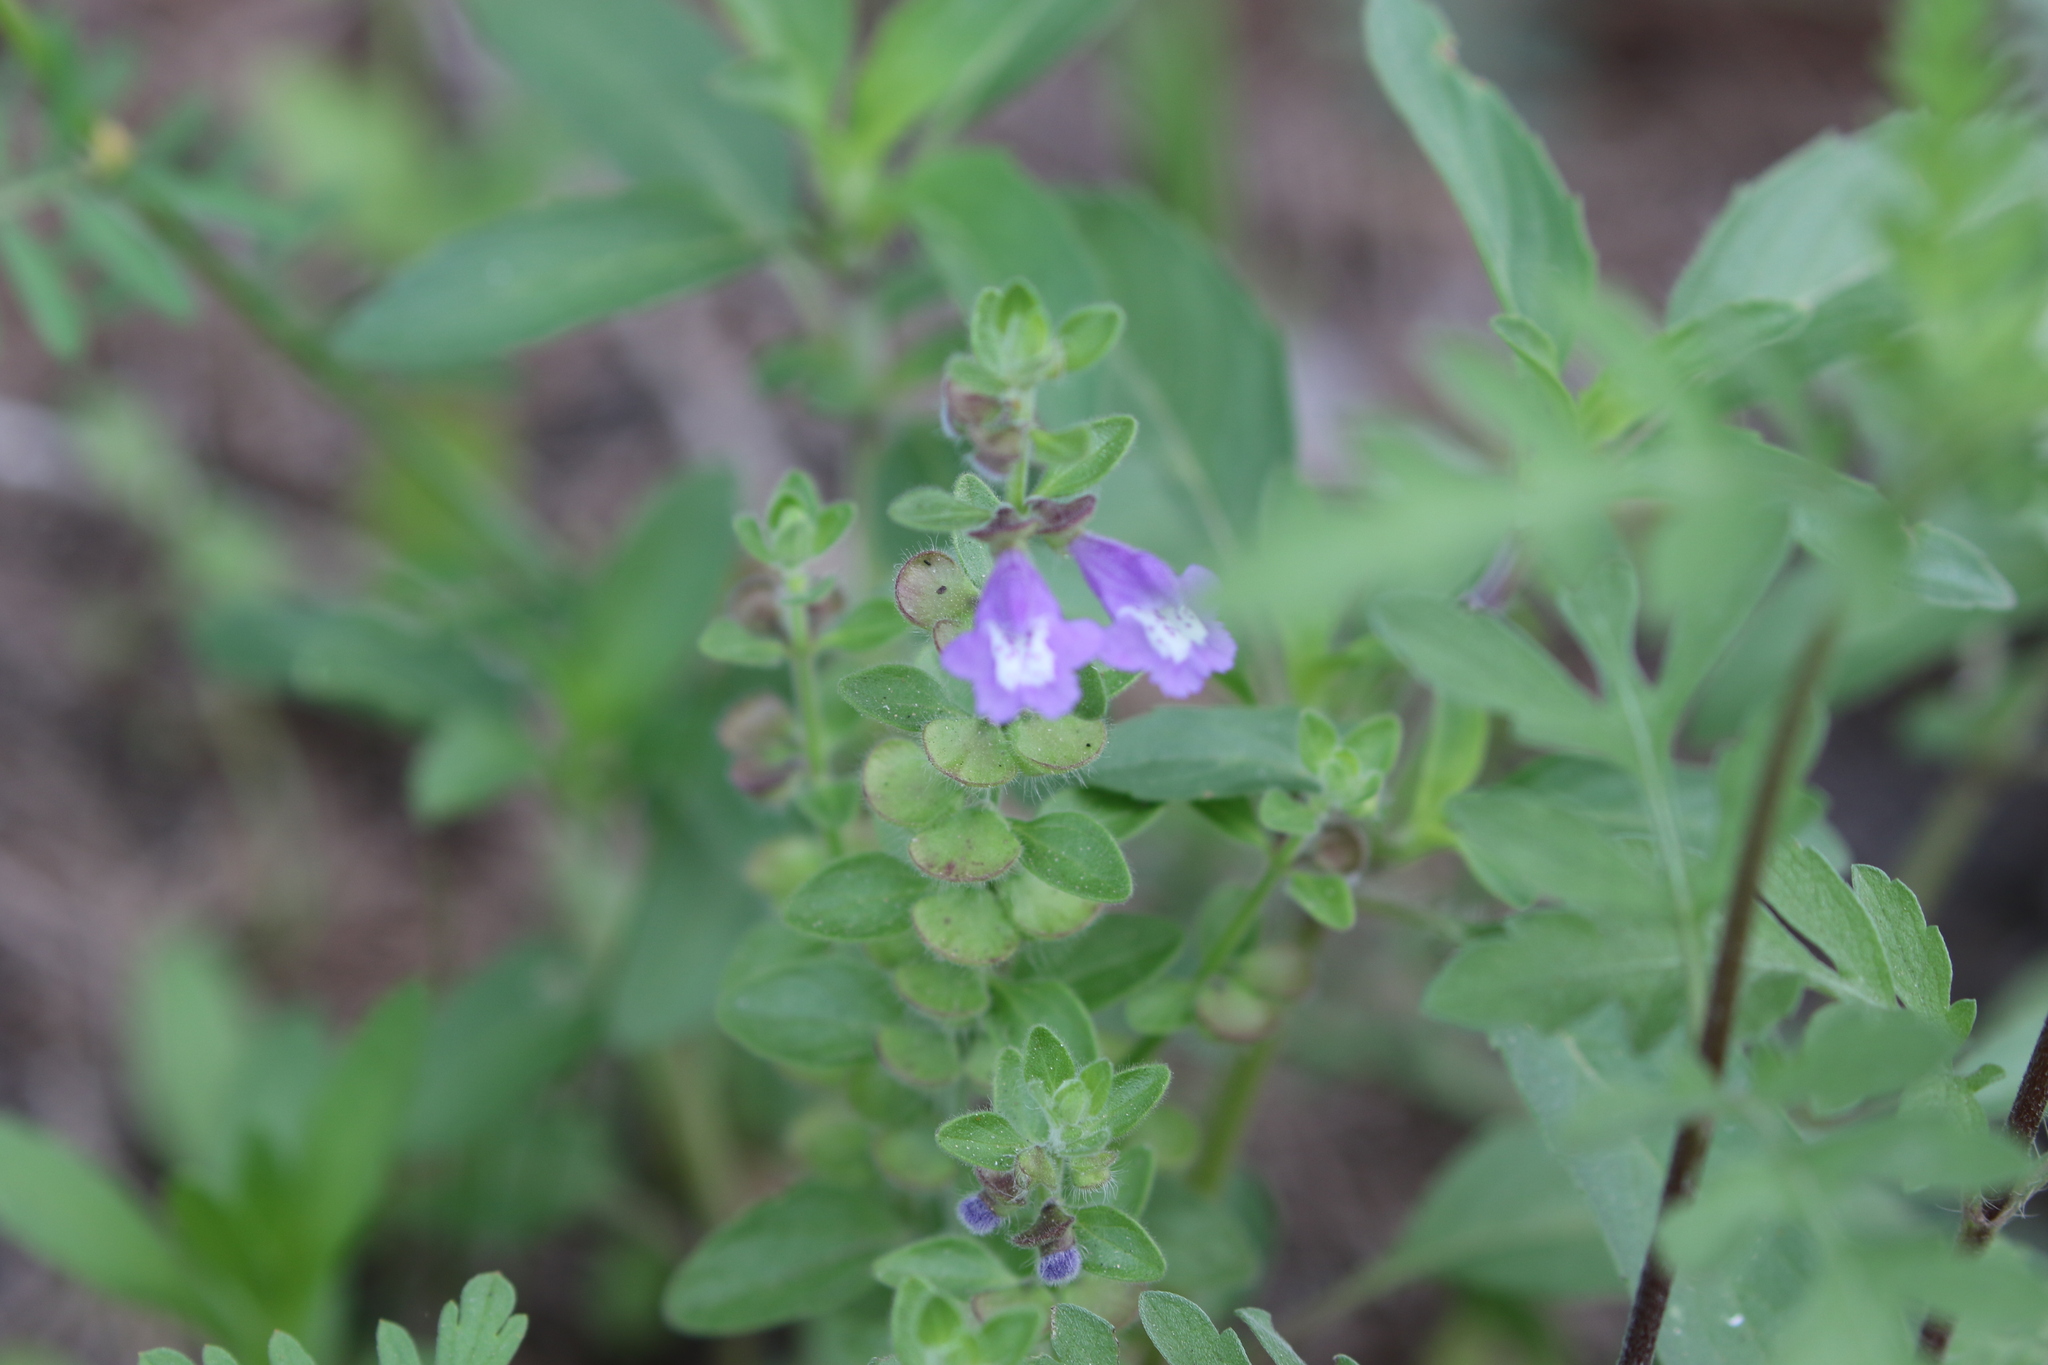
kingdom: Plantae
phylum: Tracheophyta
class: Magnoliopsida
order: Lamiales
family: Lamiaceae
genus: Scutellaria
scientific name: Scutellaria drummondii
